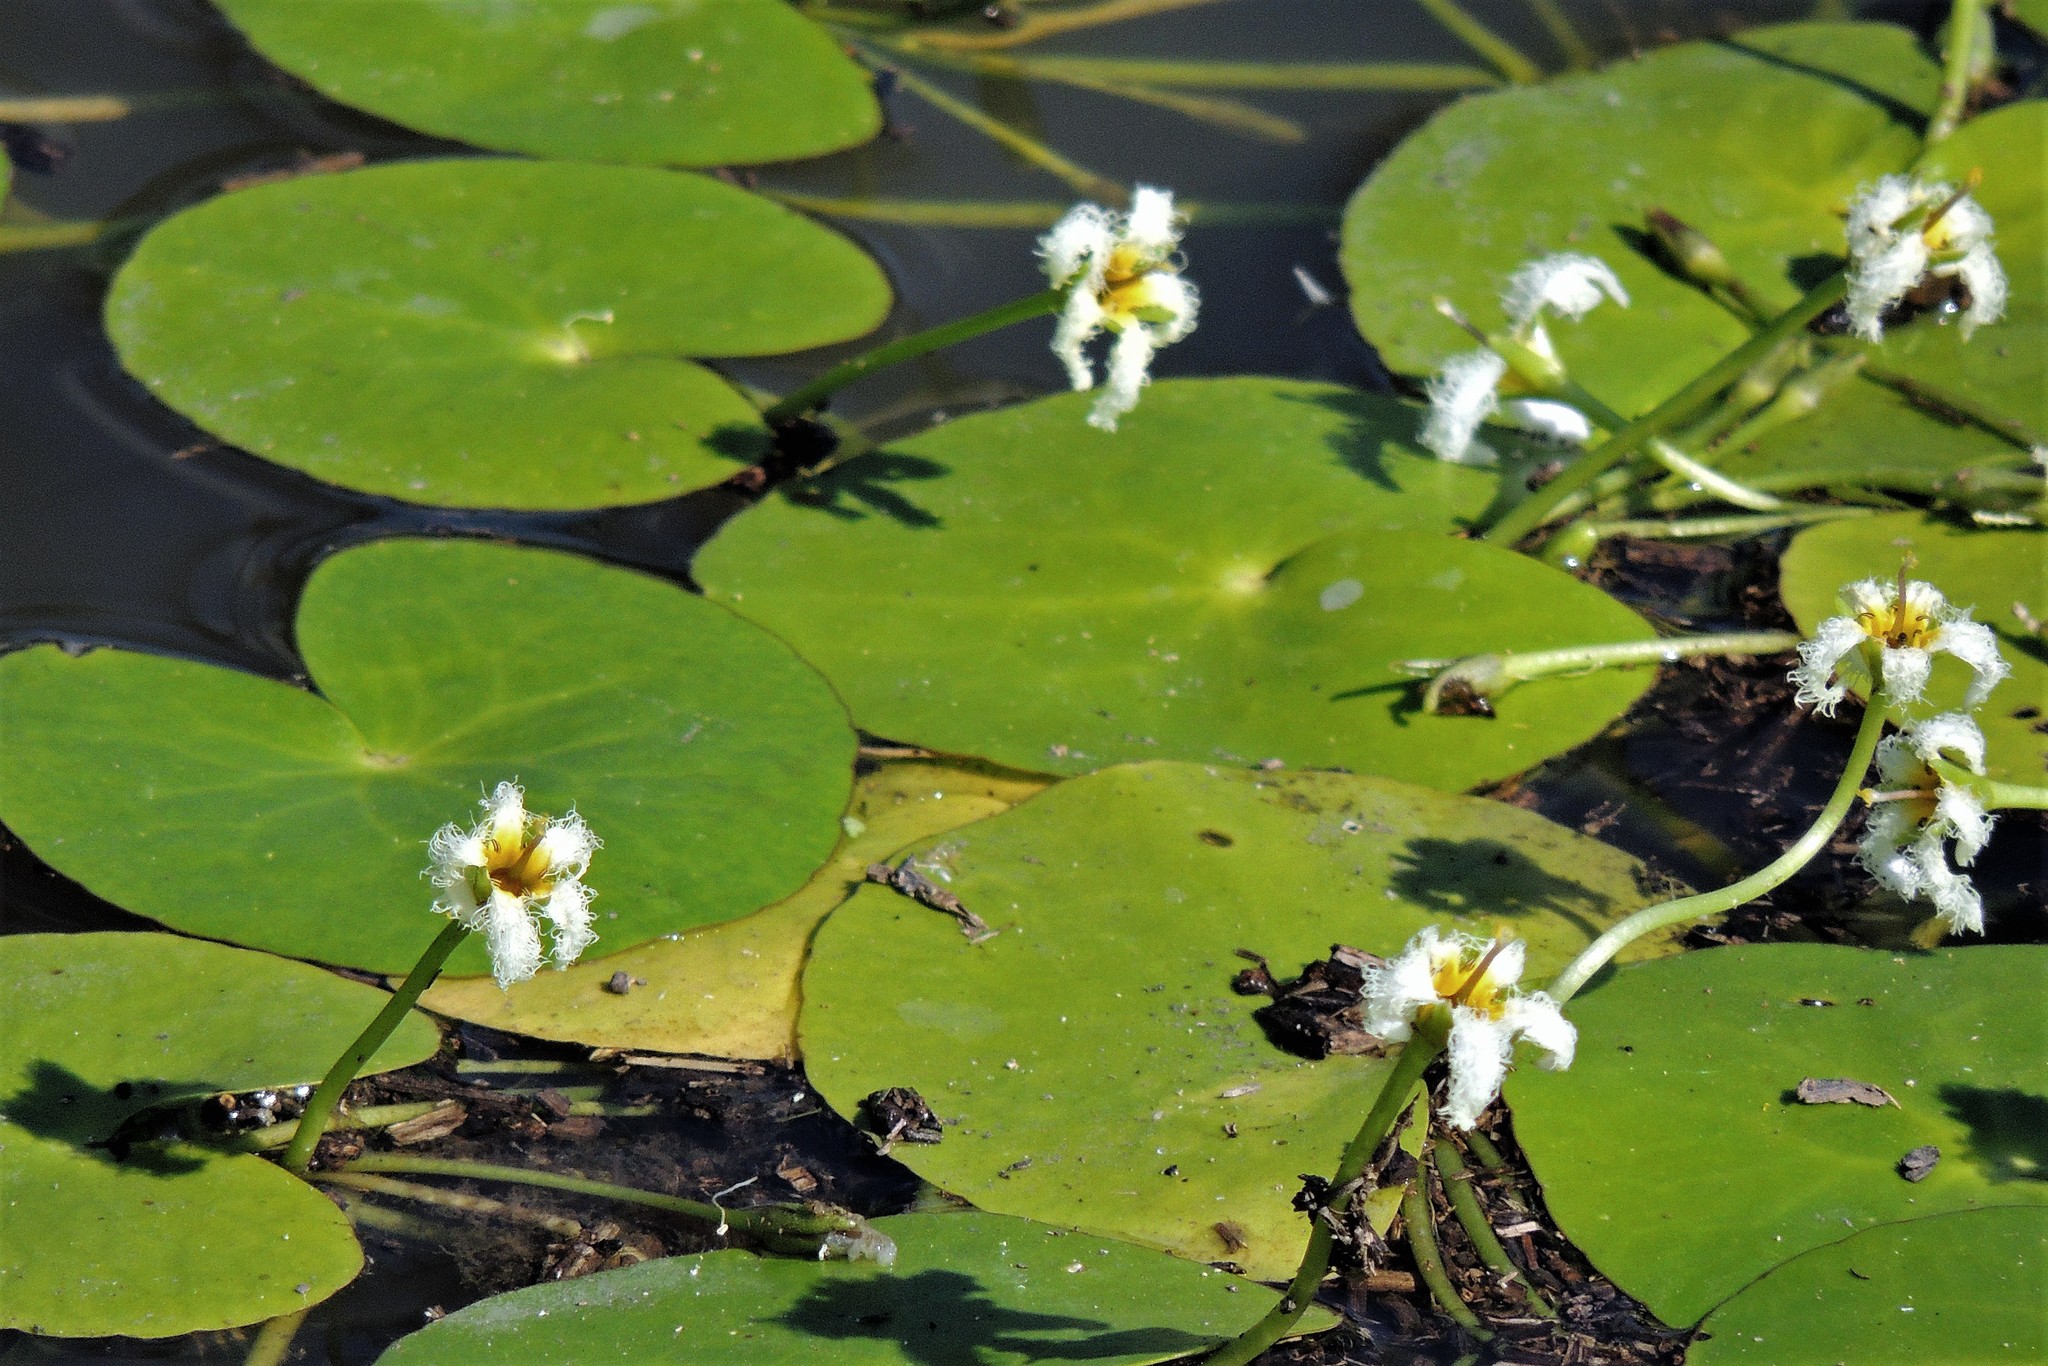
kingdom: Plantae
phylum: Tracheophyta
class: Magnoliopsida
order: Asterales
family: Menyanthaceae
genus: Nymphoides
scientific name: Nymphoides humboldtiana
